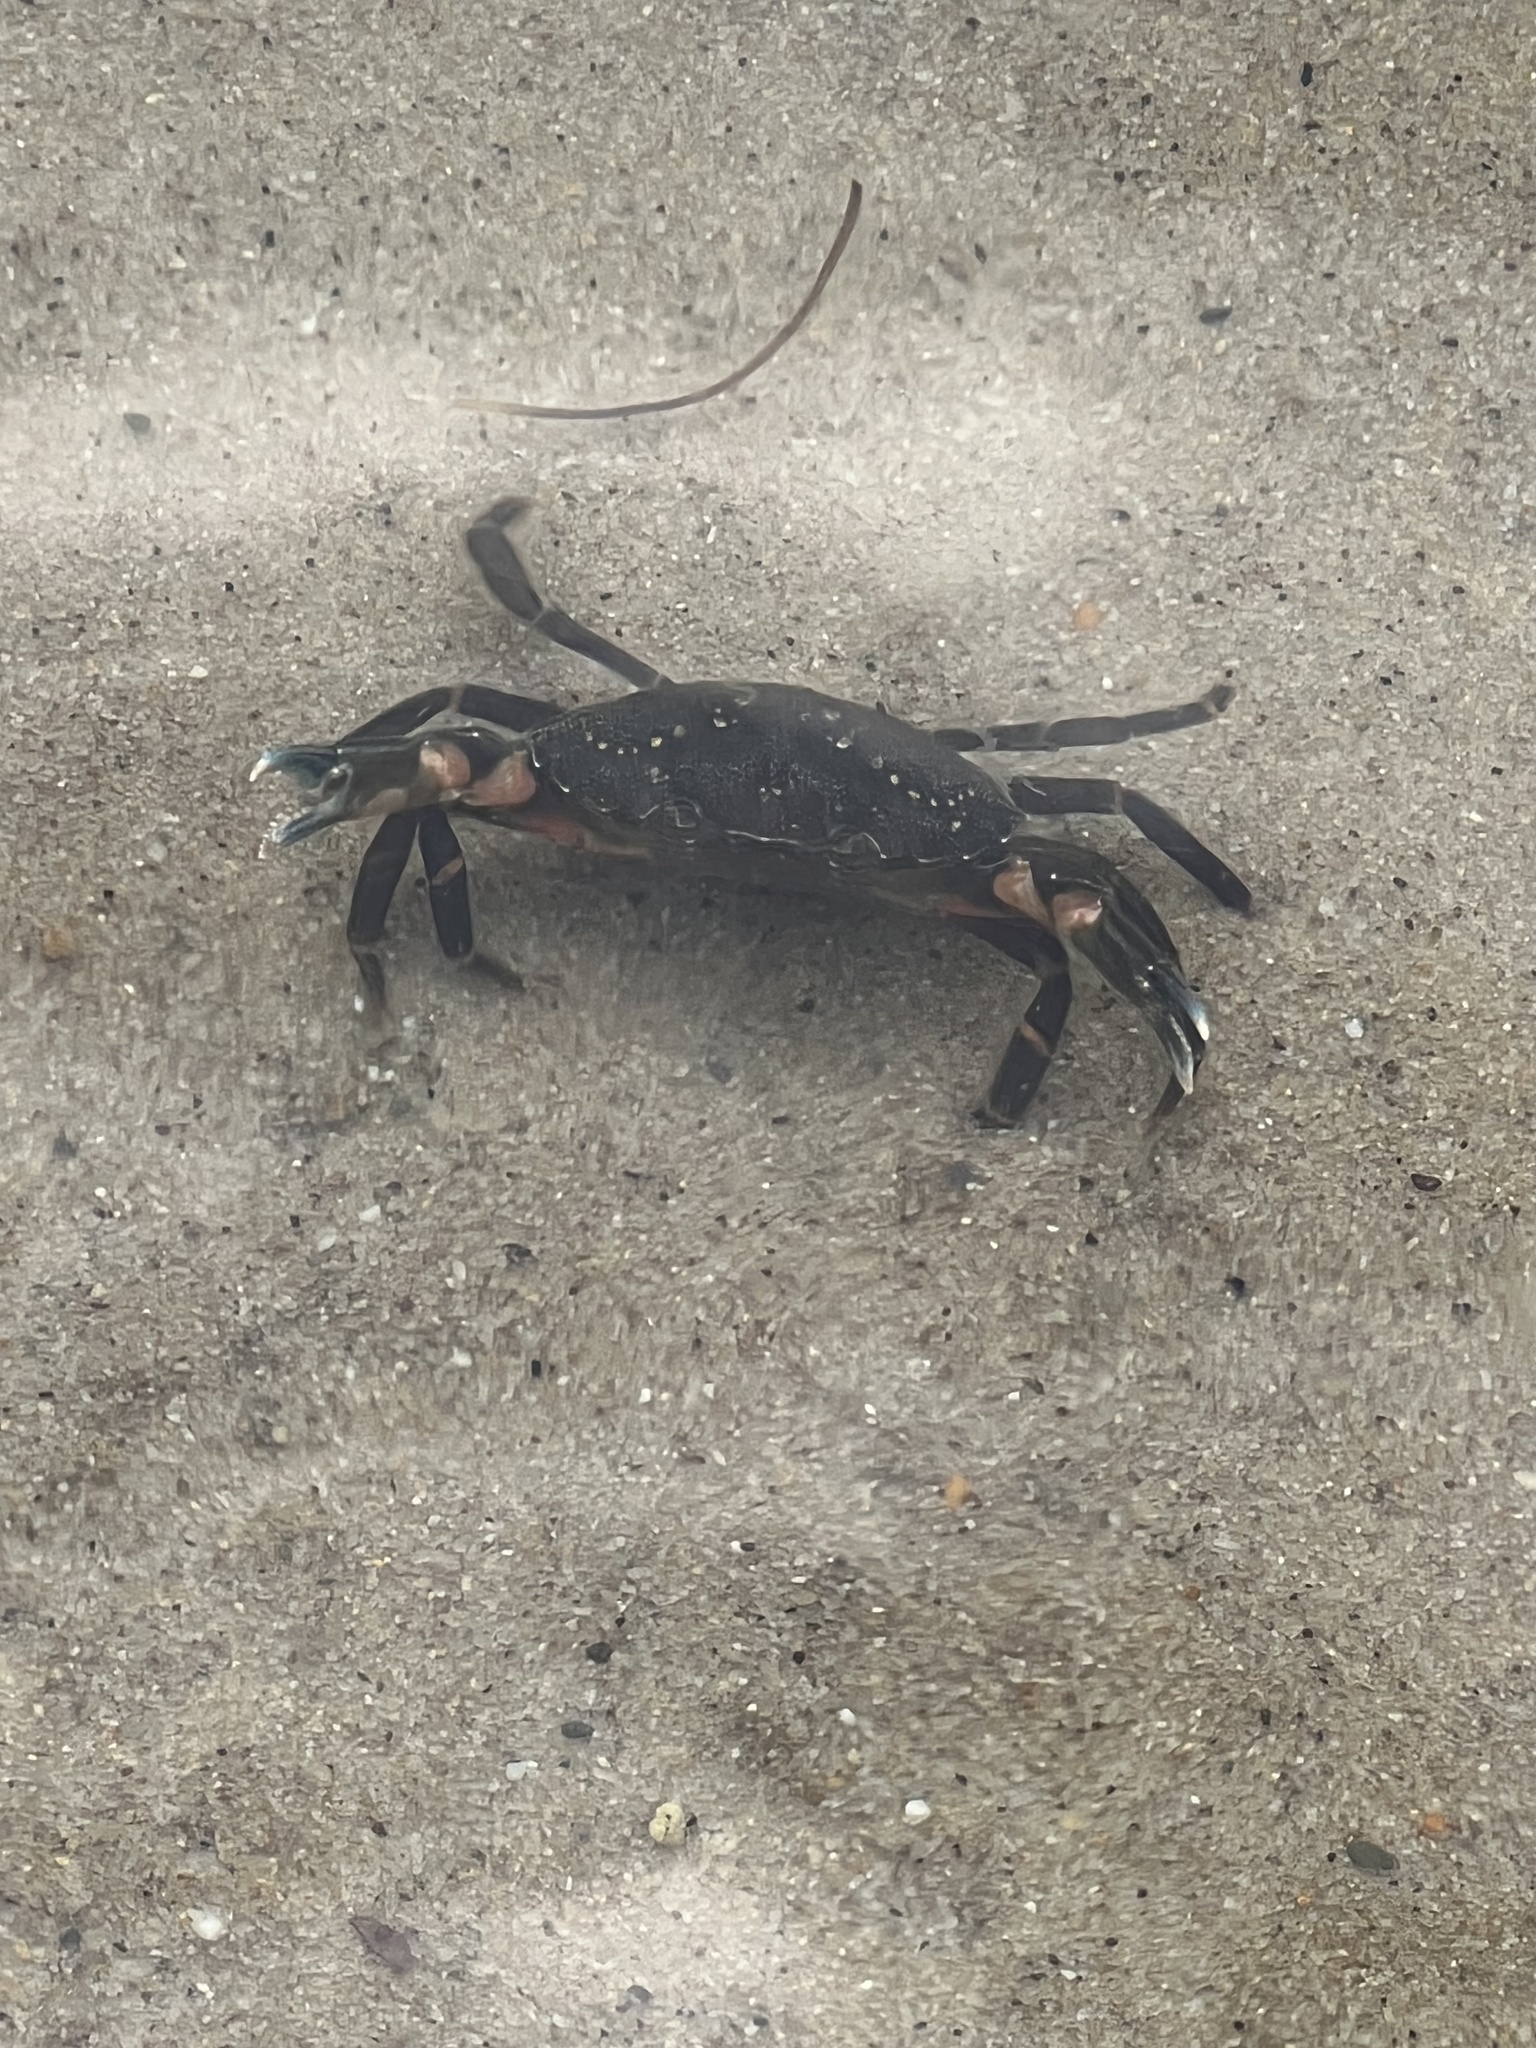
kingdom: Animalia
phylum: Arthropoda
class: Malacostraca
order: Decapoda
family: Carcinidae
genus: Carcinus
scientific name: Carcinus maenas
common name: European green crab
